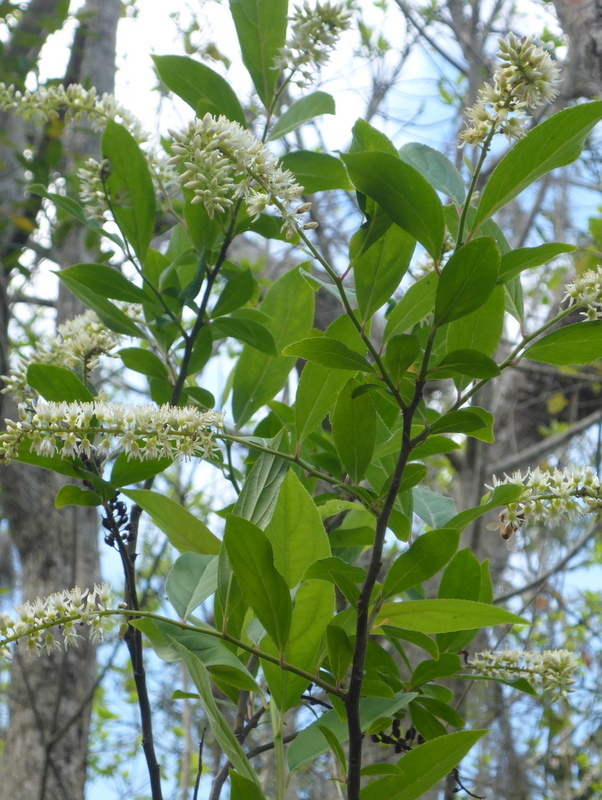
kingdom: Plantae
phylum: Tracheophyta
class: Magnoliopsida
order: Saxifragales
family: Iteaceae
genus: Itea
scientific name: Itea virginica
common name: Sweetspire
